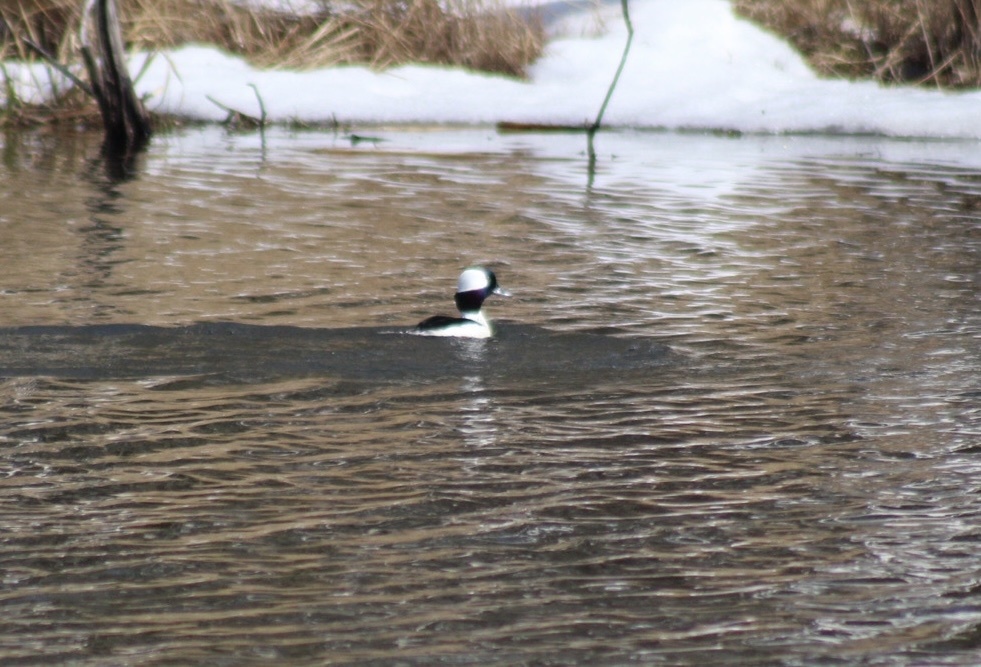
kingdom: Animalia
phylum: Chordata
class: Aves
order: Anseriformes
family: Anatidae
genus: Bucephala
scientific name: Bucephala albeola
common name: Bufflehead
